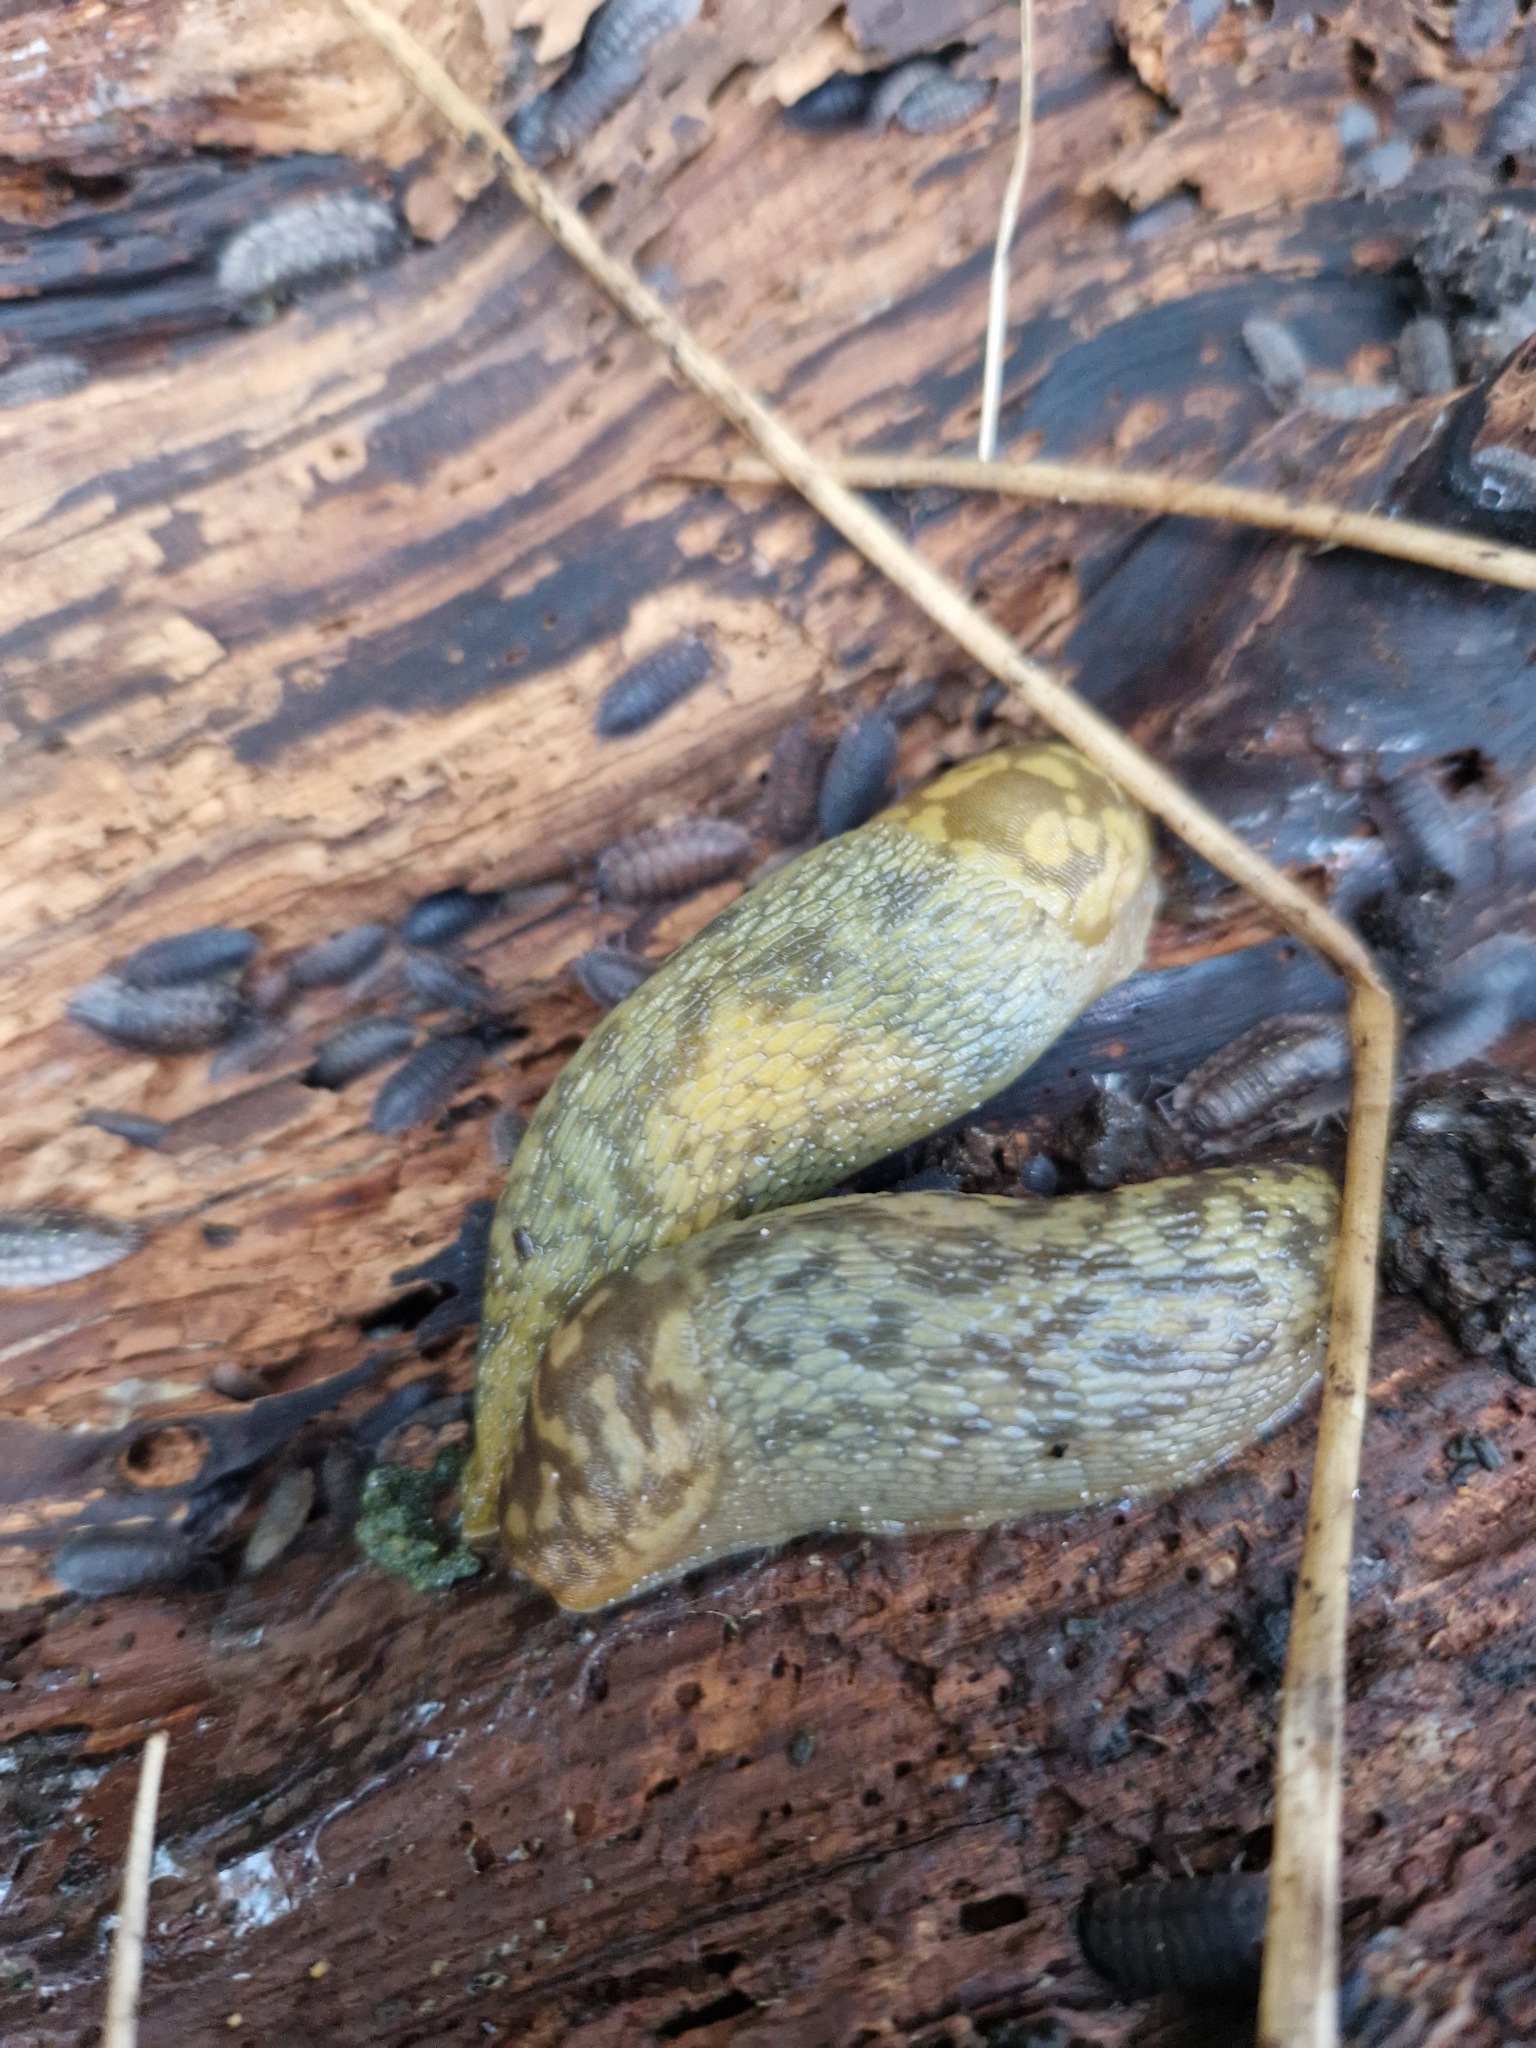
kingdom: Animalia
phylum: Mollusca
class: Gastropoda
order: Stylommatophora
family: Limacidae
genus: Limacus
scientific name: Limacus maculatus
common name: Irish yellow slug
